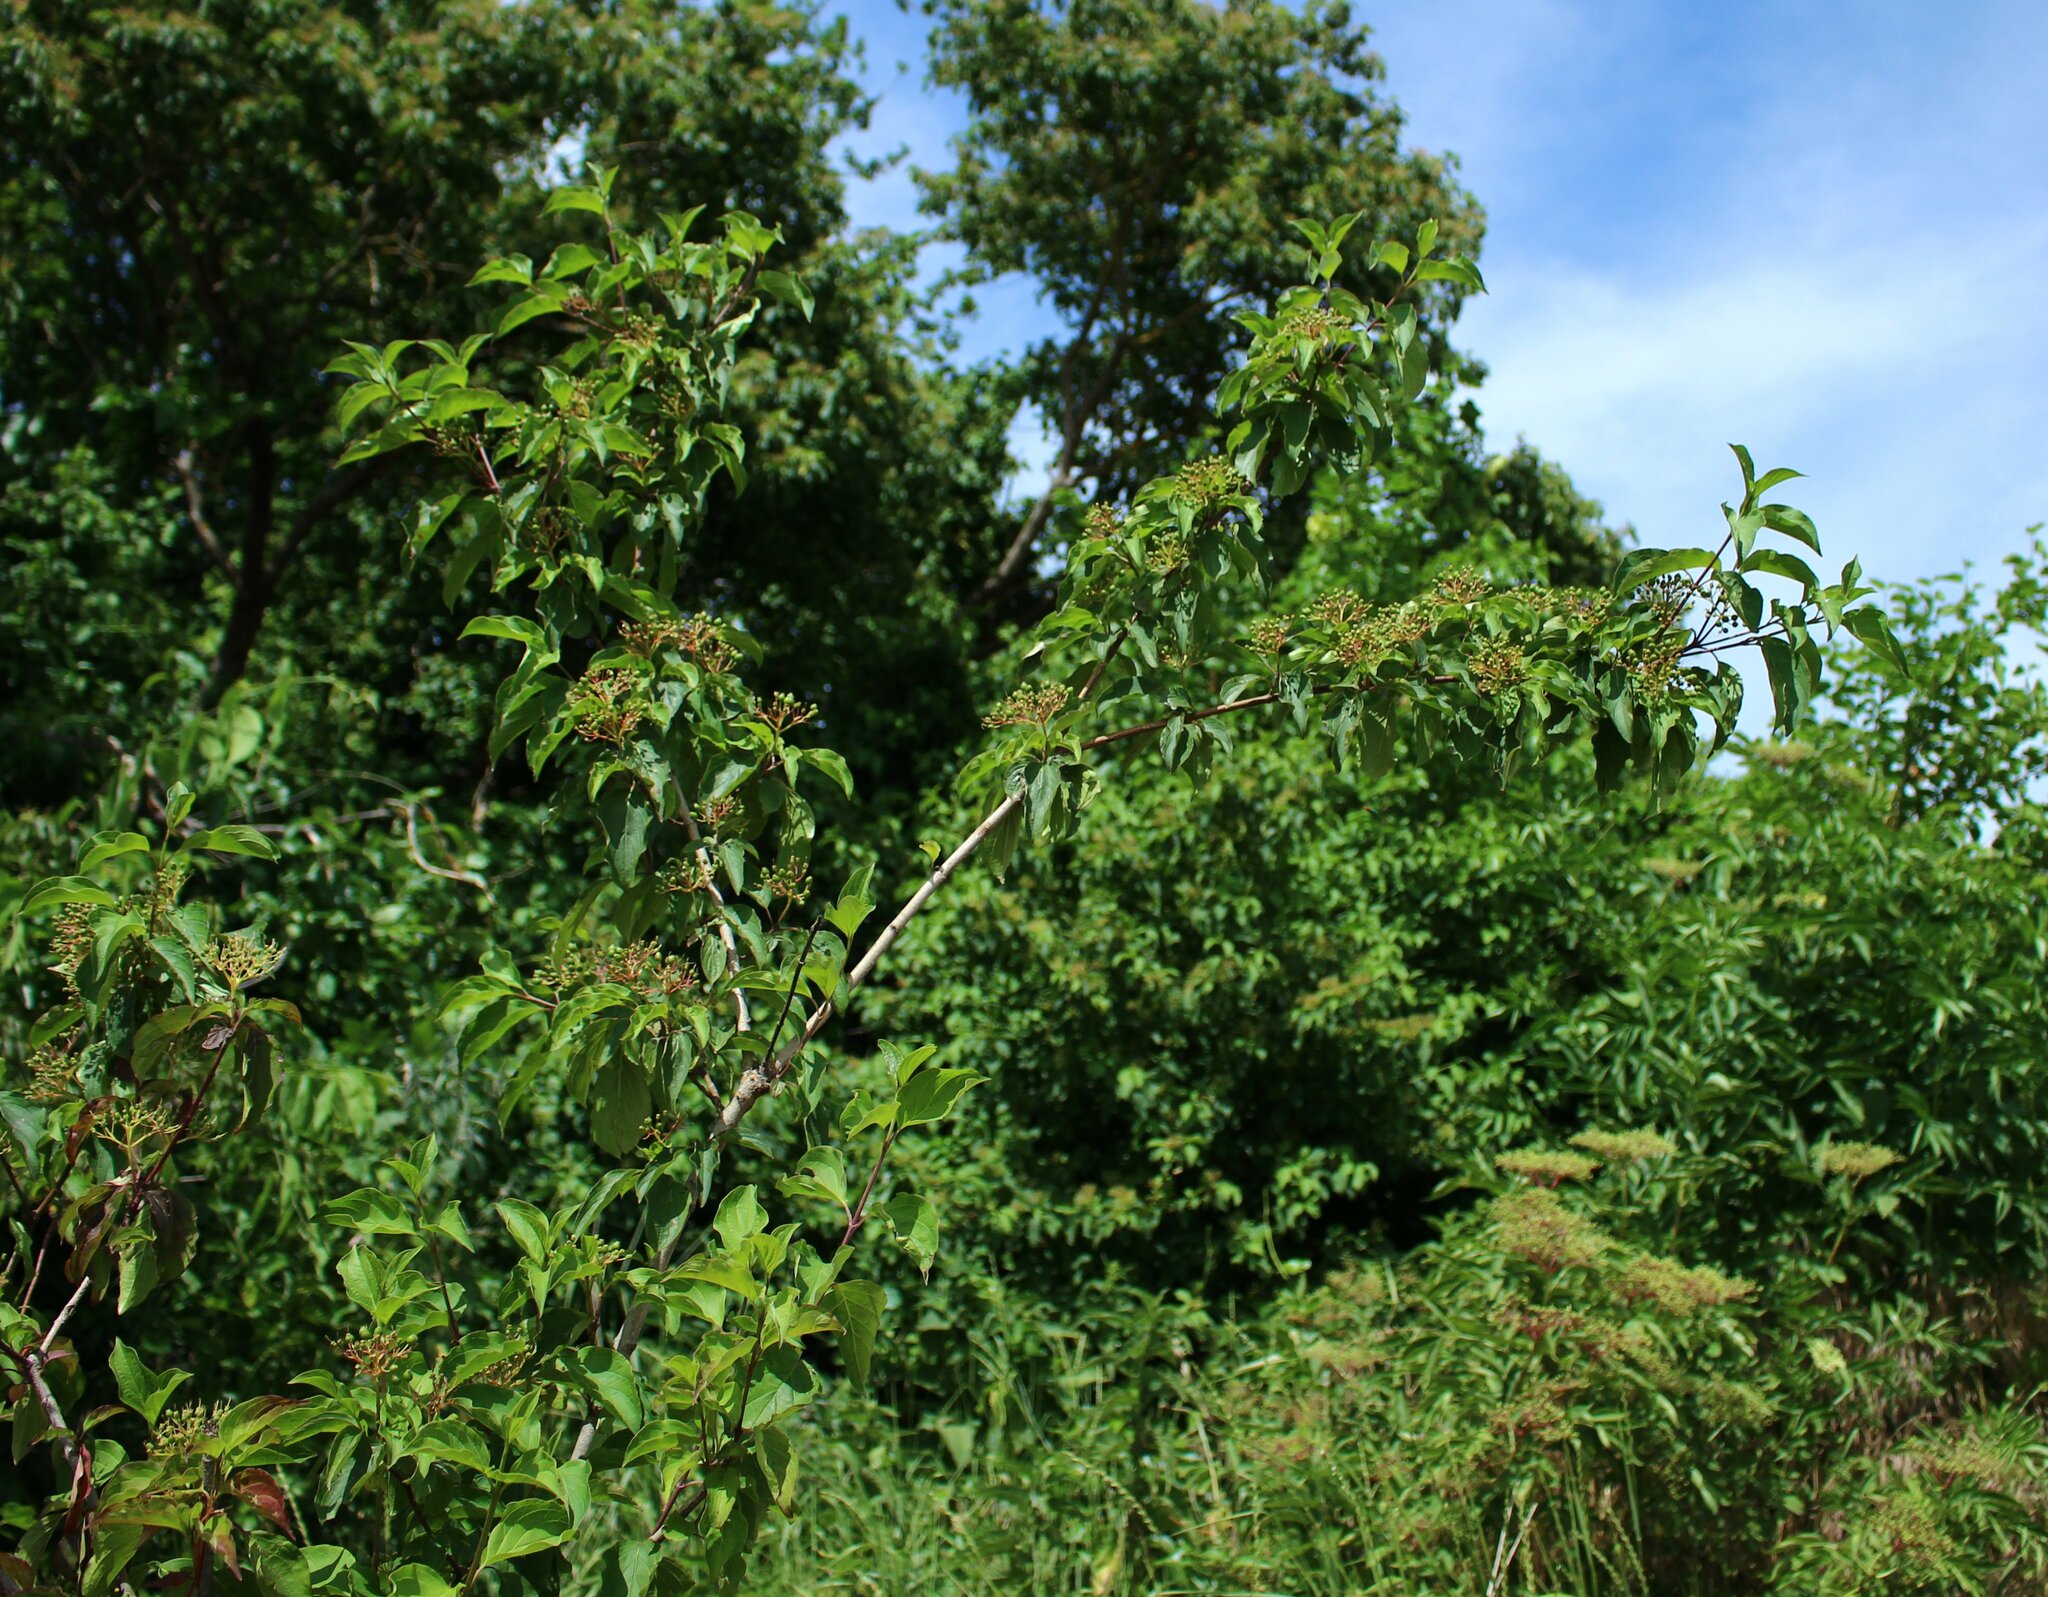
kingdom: Plantae
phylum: Tracheophyta
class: Magnoliopsida
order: Cornales
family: Cornaceae
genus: Cornus
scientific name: Cornus sanguinea
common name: Dogwood
